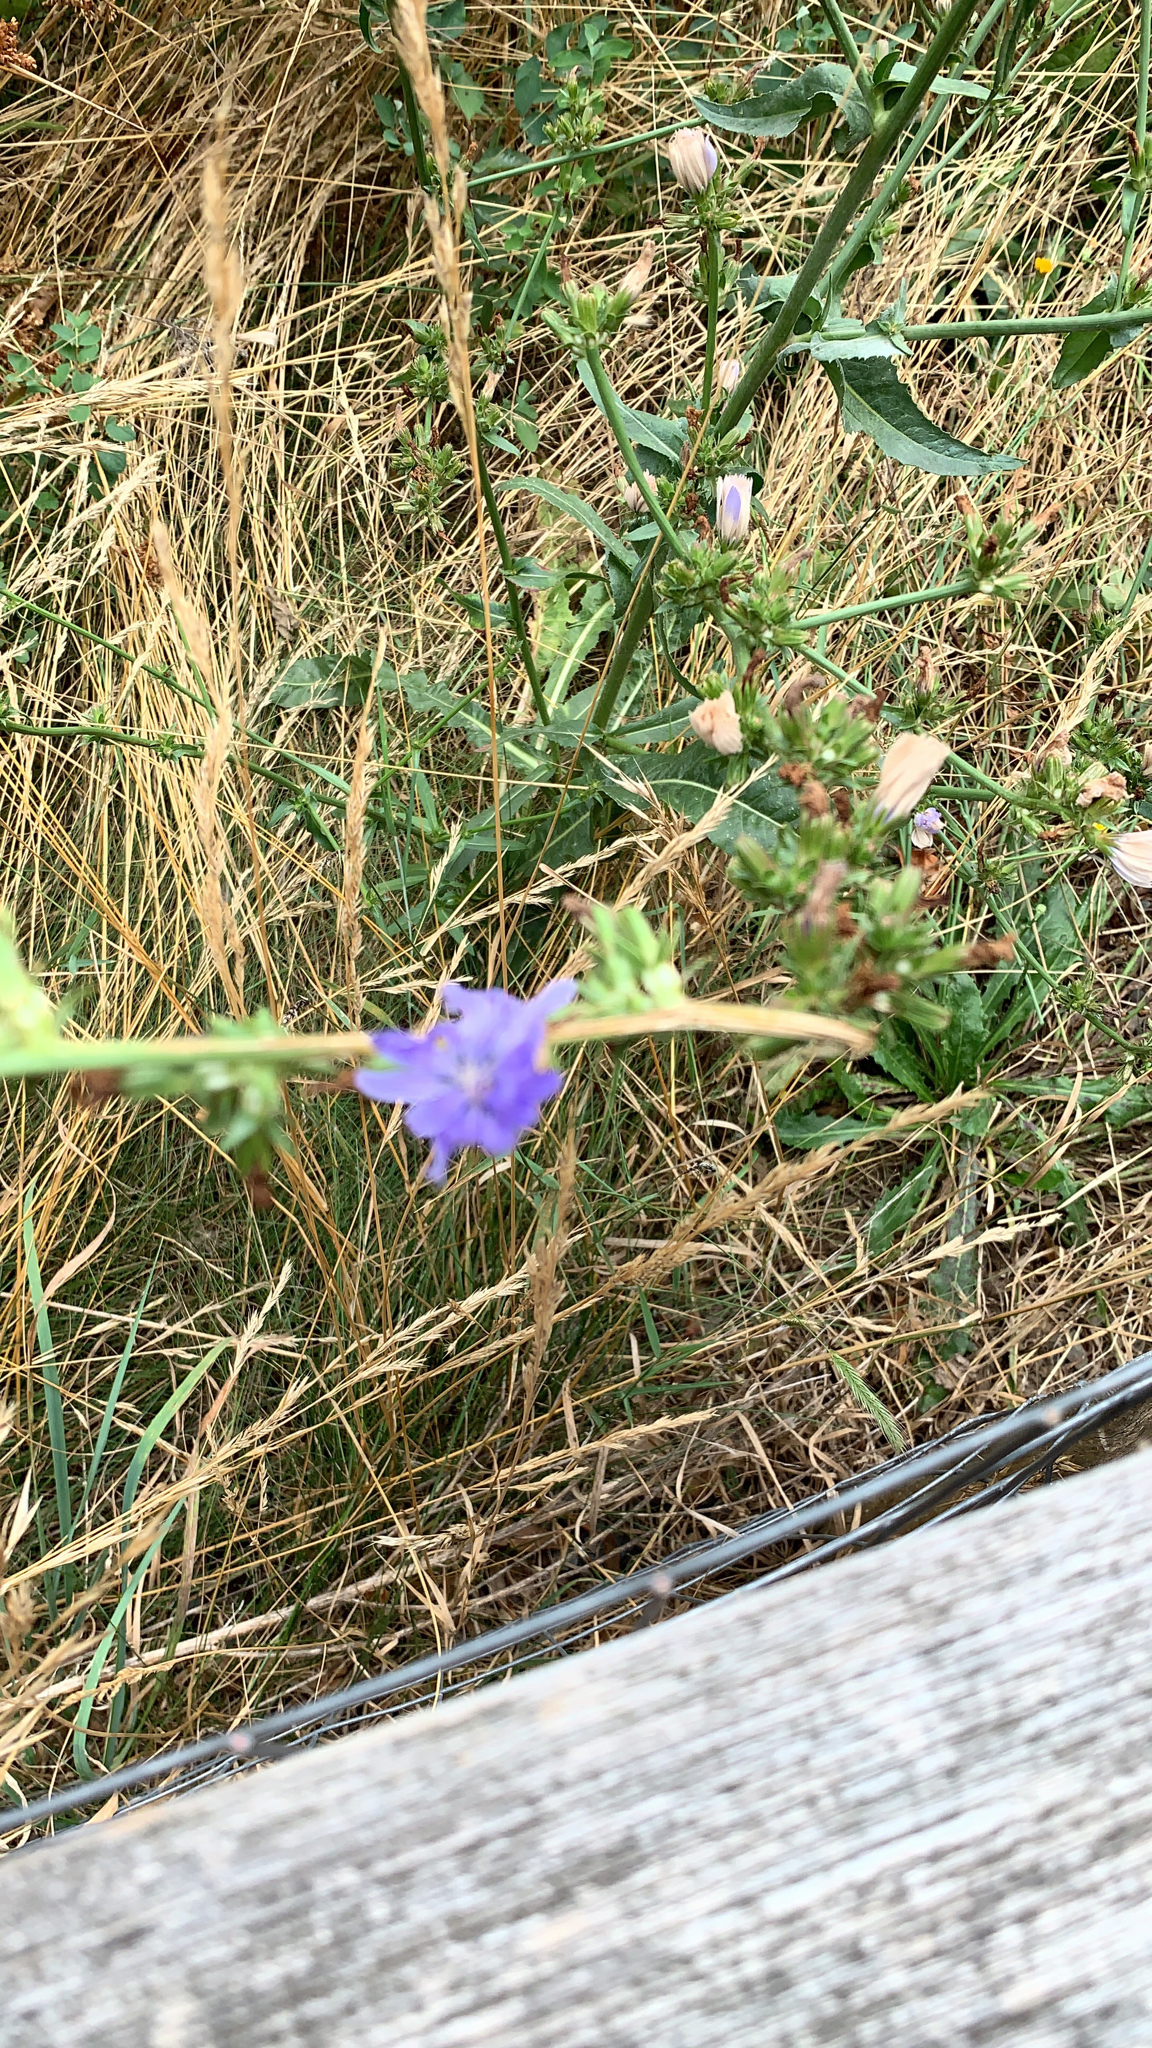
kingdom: Plantae
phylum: Tracheophyta
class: Magnoliopsida
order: Asterales
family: Asteraceae
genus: Cichorium
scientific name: Cichorium intybus
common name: Chicory
